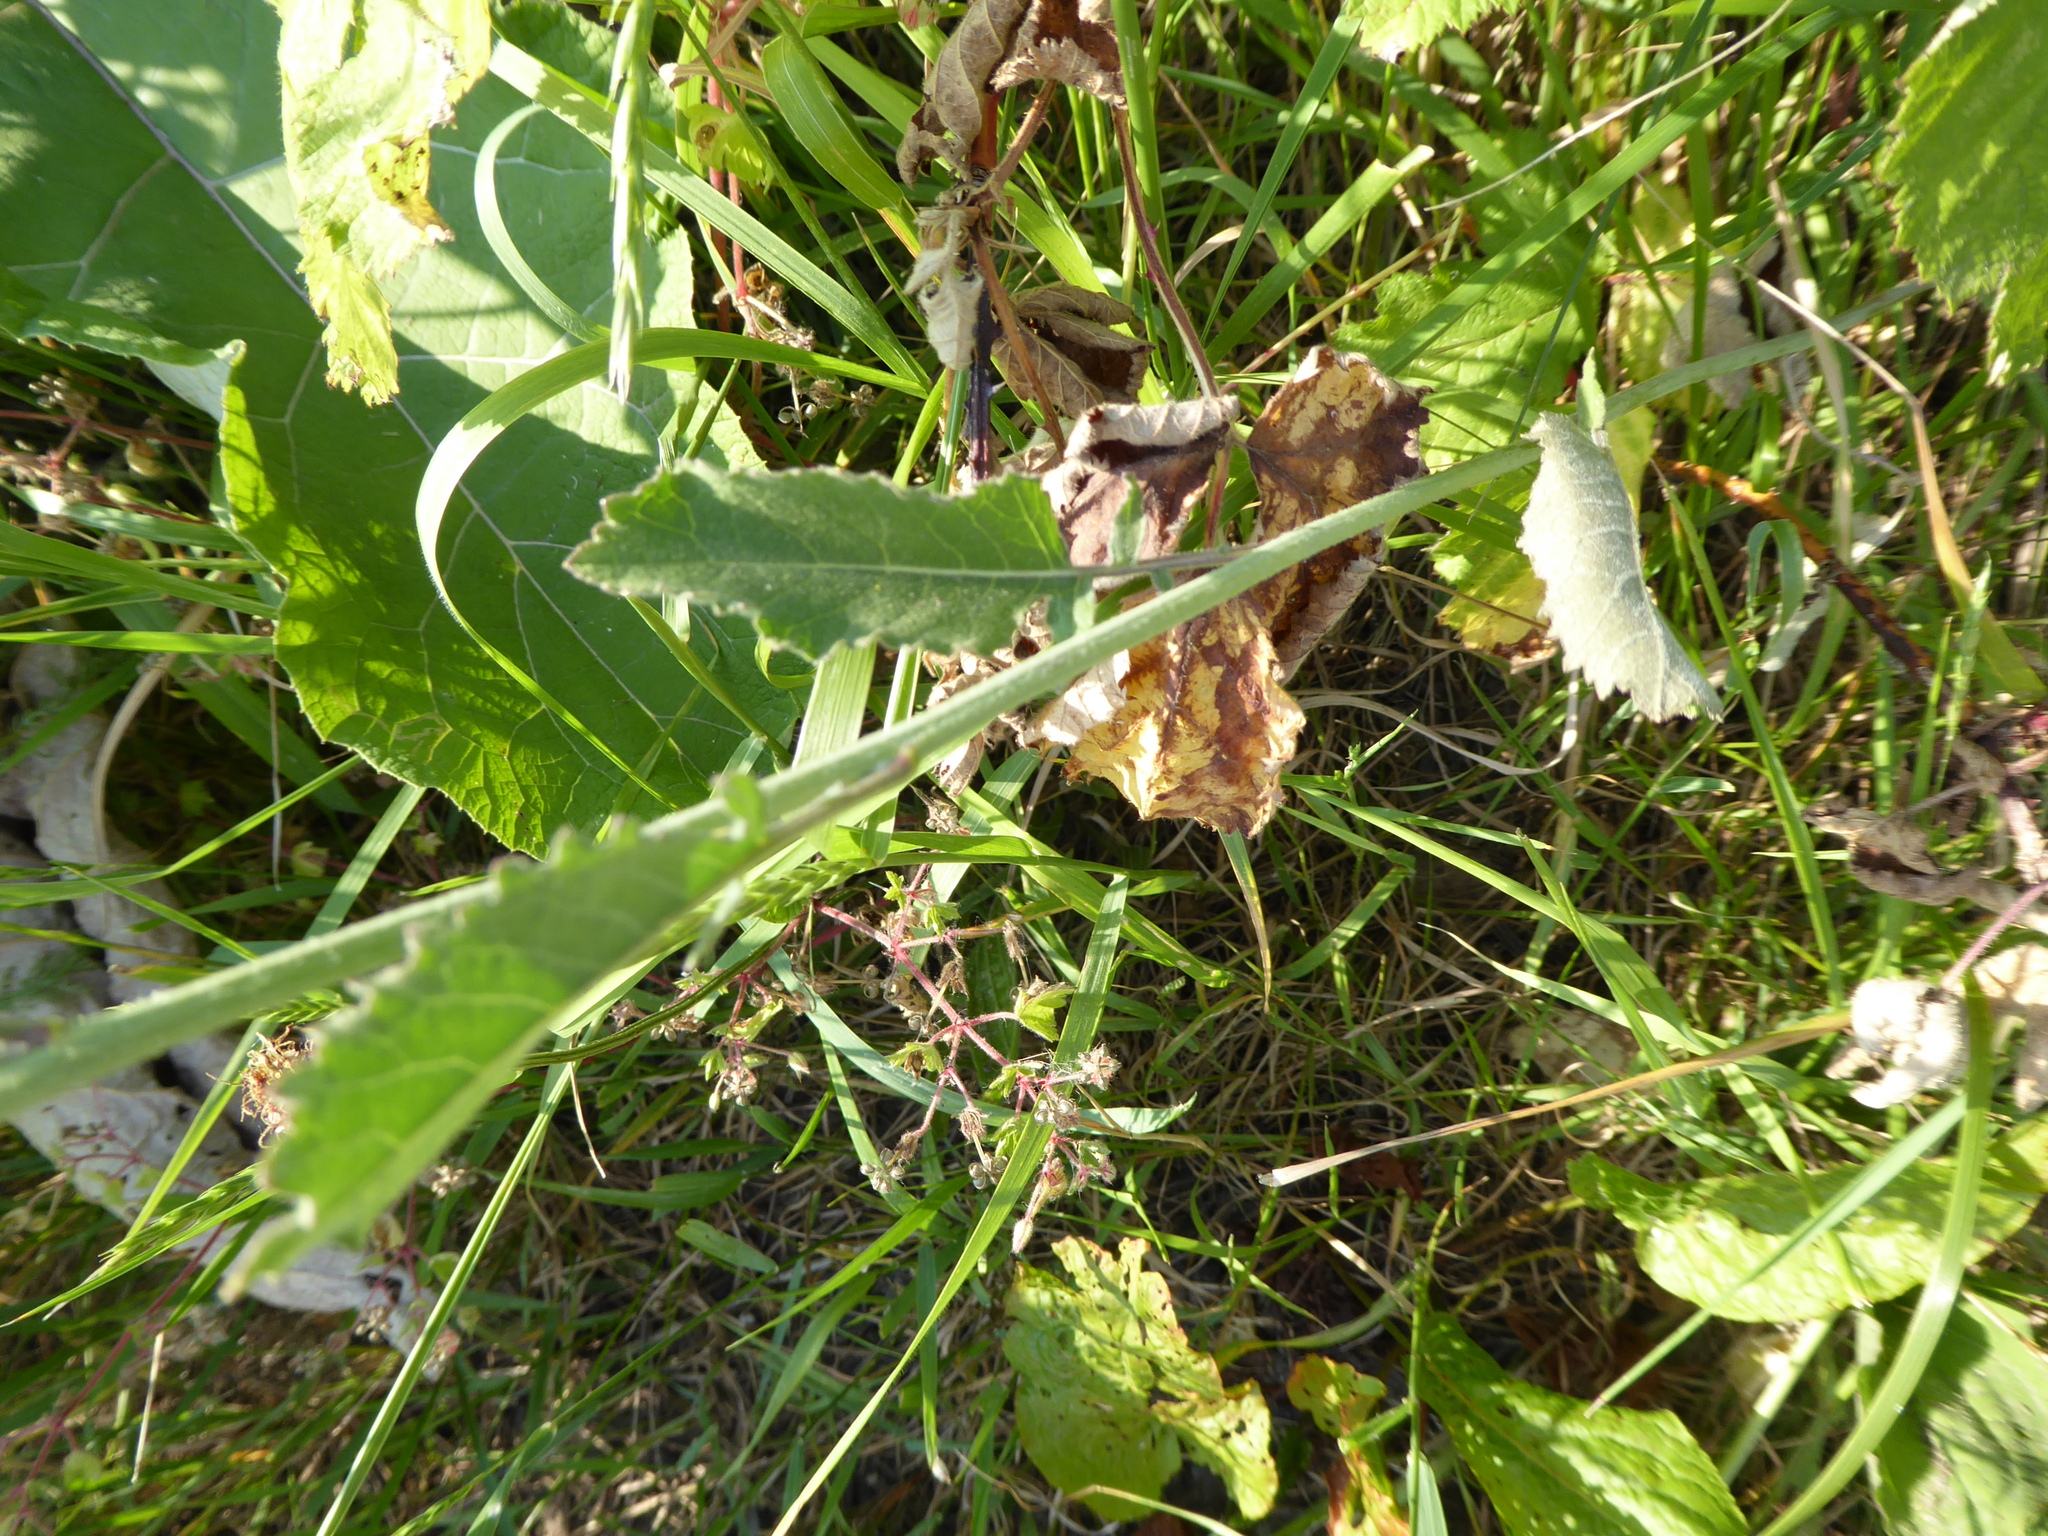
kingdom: Plantae
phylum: Tracheophyta
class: Magnoliopsida
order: Brassicales
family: Brassicaceae
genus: Hirschfeldia
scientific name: Hirschfeldia incana
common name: Hoary mustard
